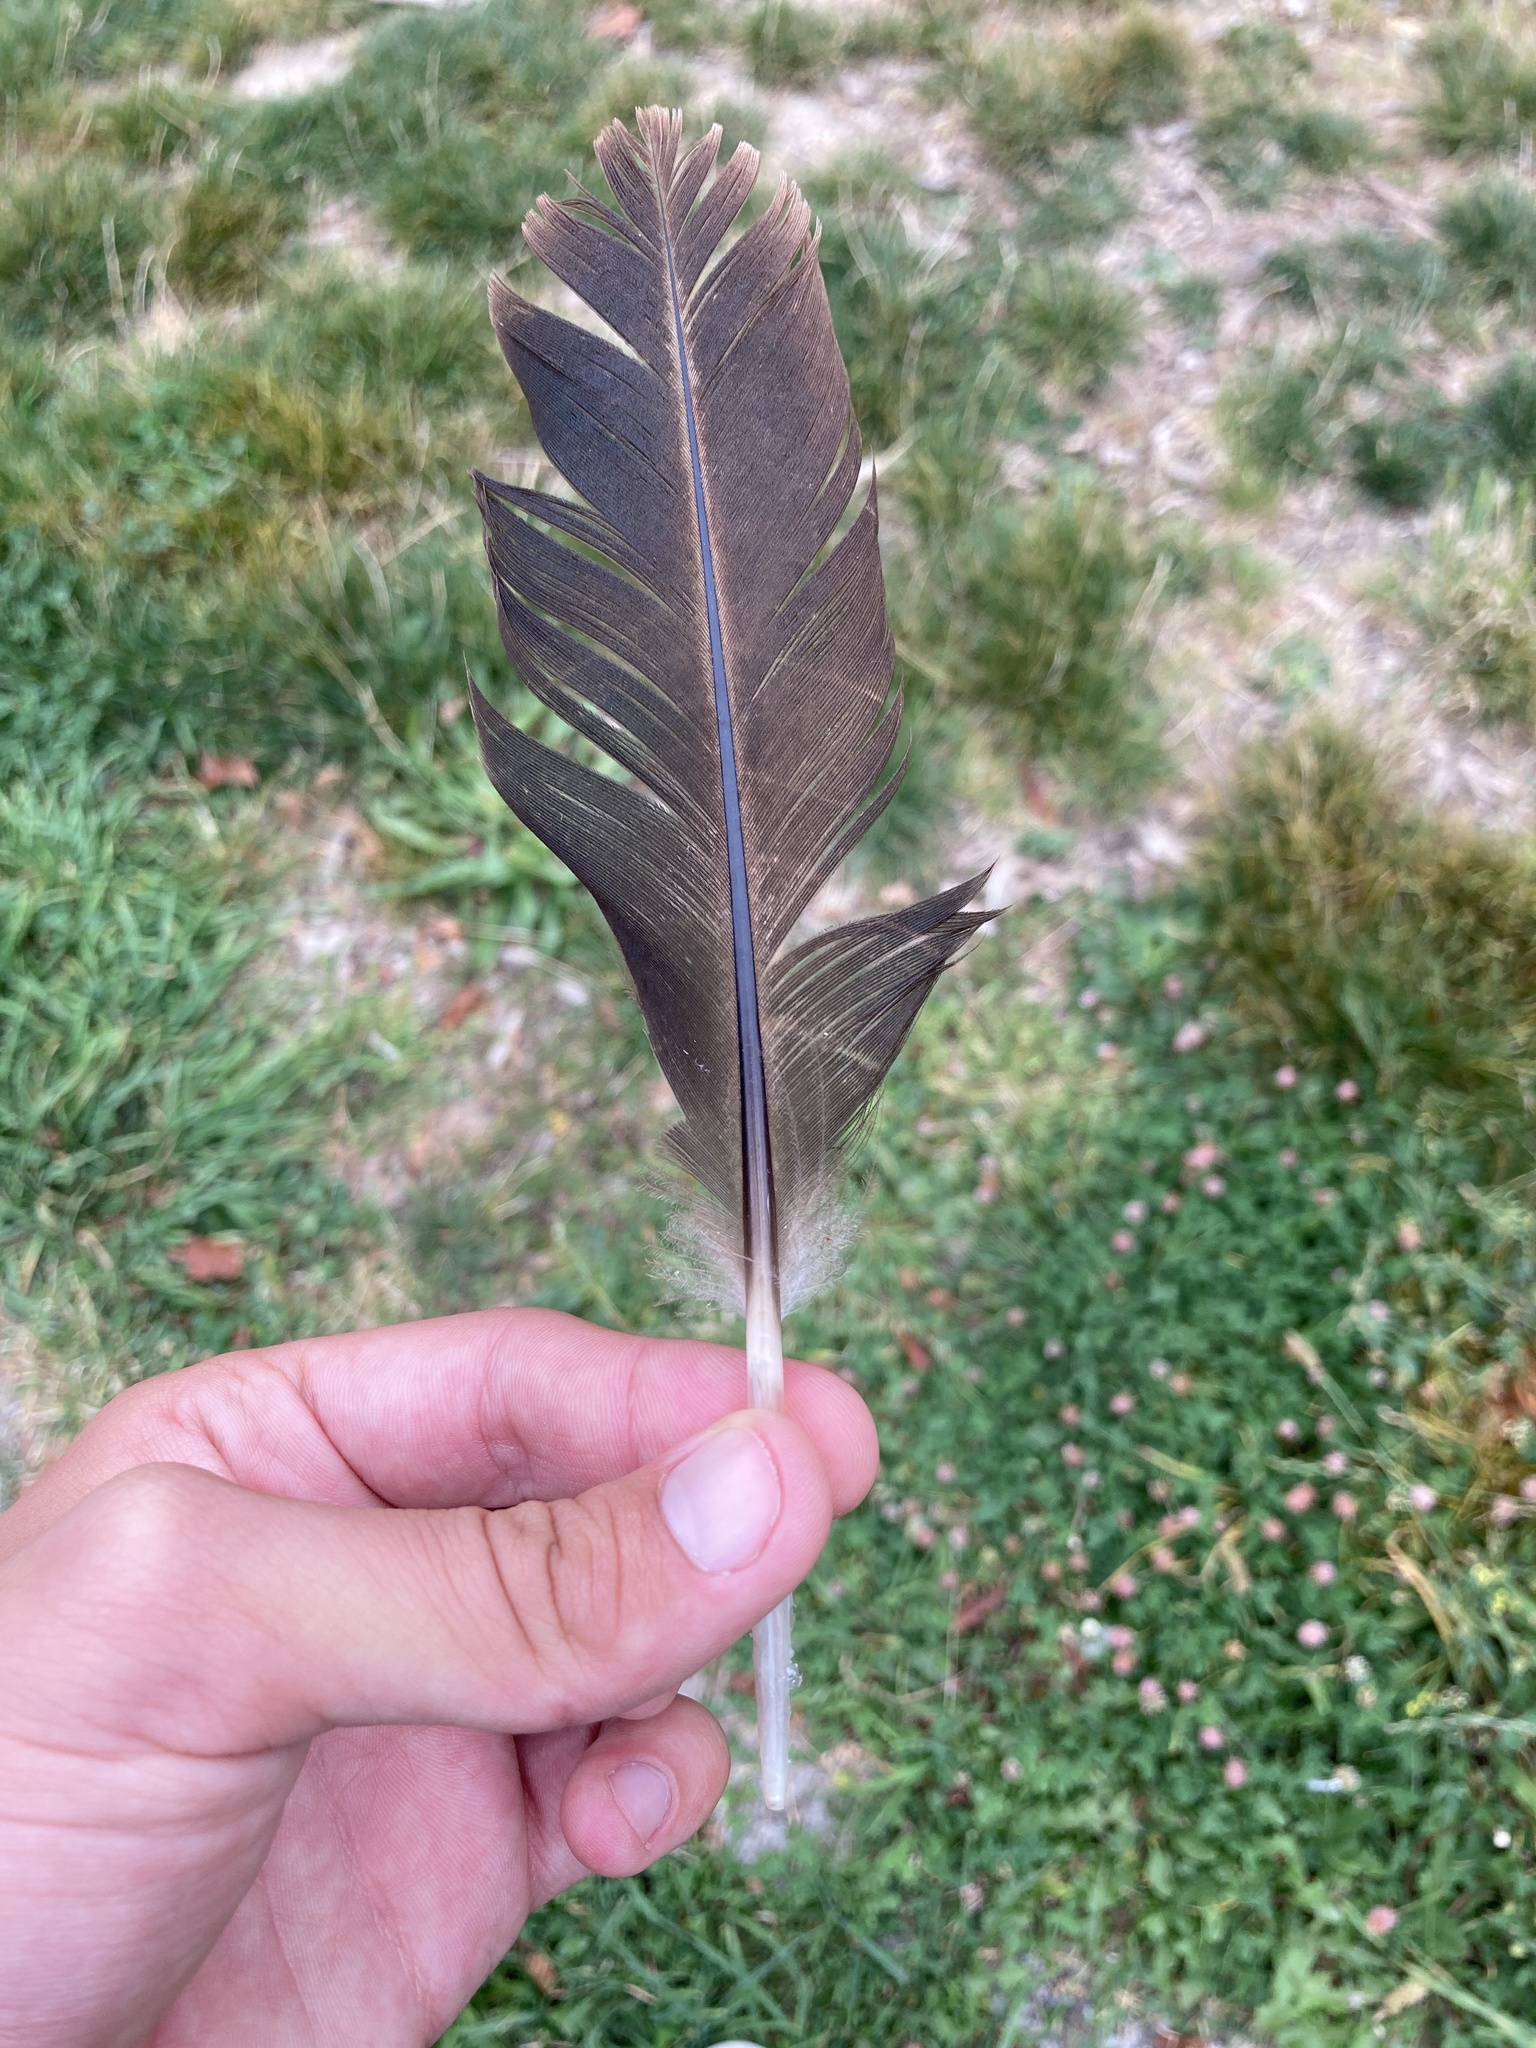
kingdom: Animalia
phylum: Chordata
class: Aves
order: Anseriformes
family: Anatidae
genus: Cairina
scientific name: Cairina moschata
